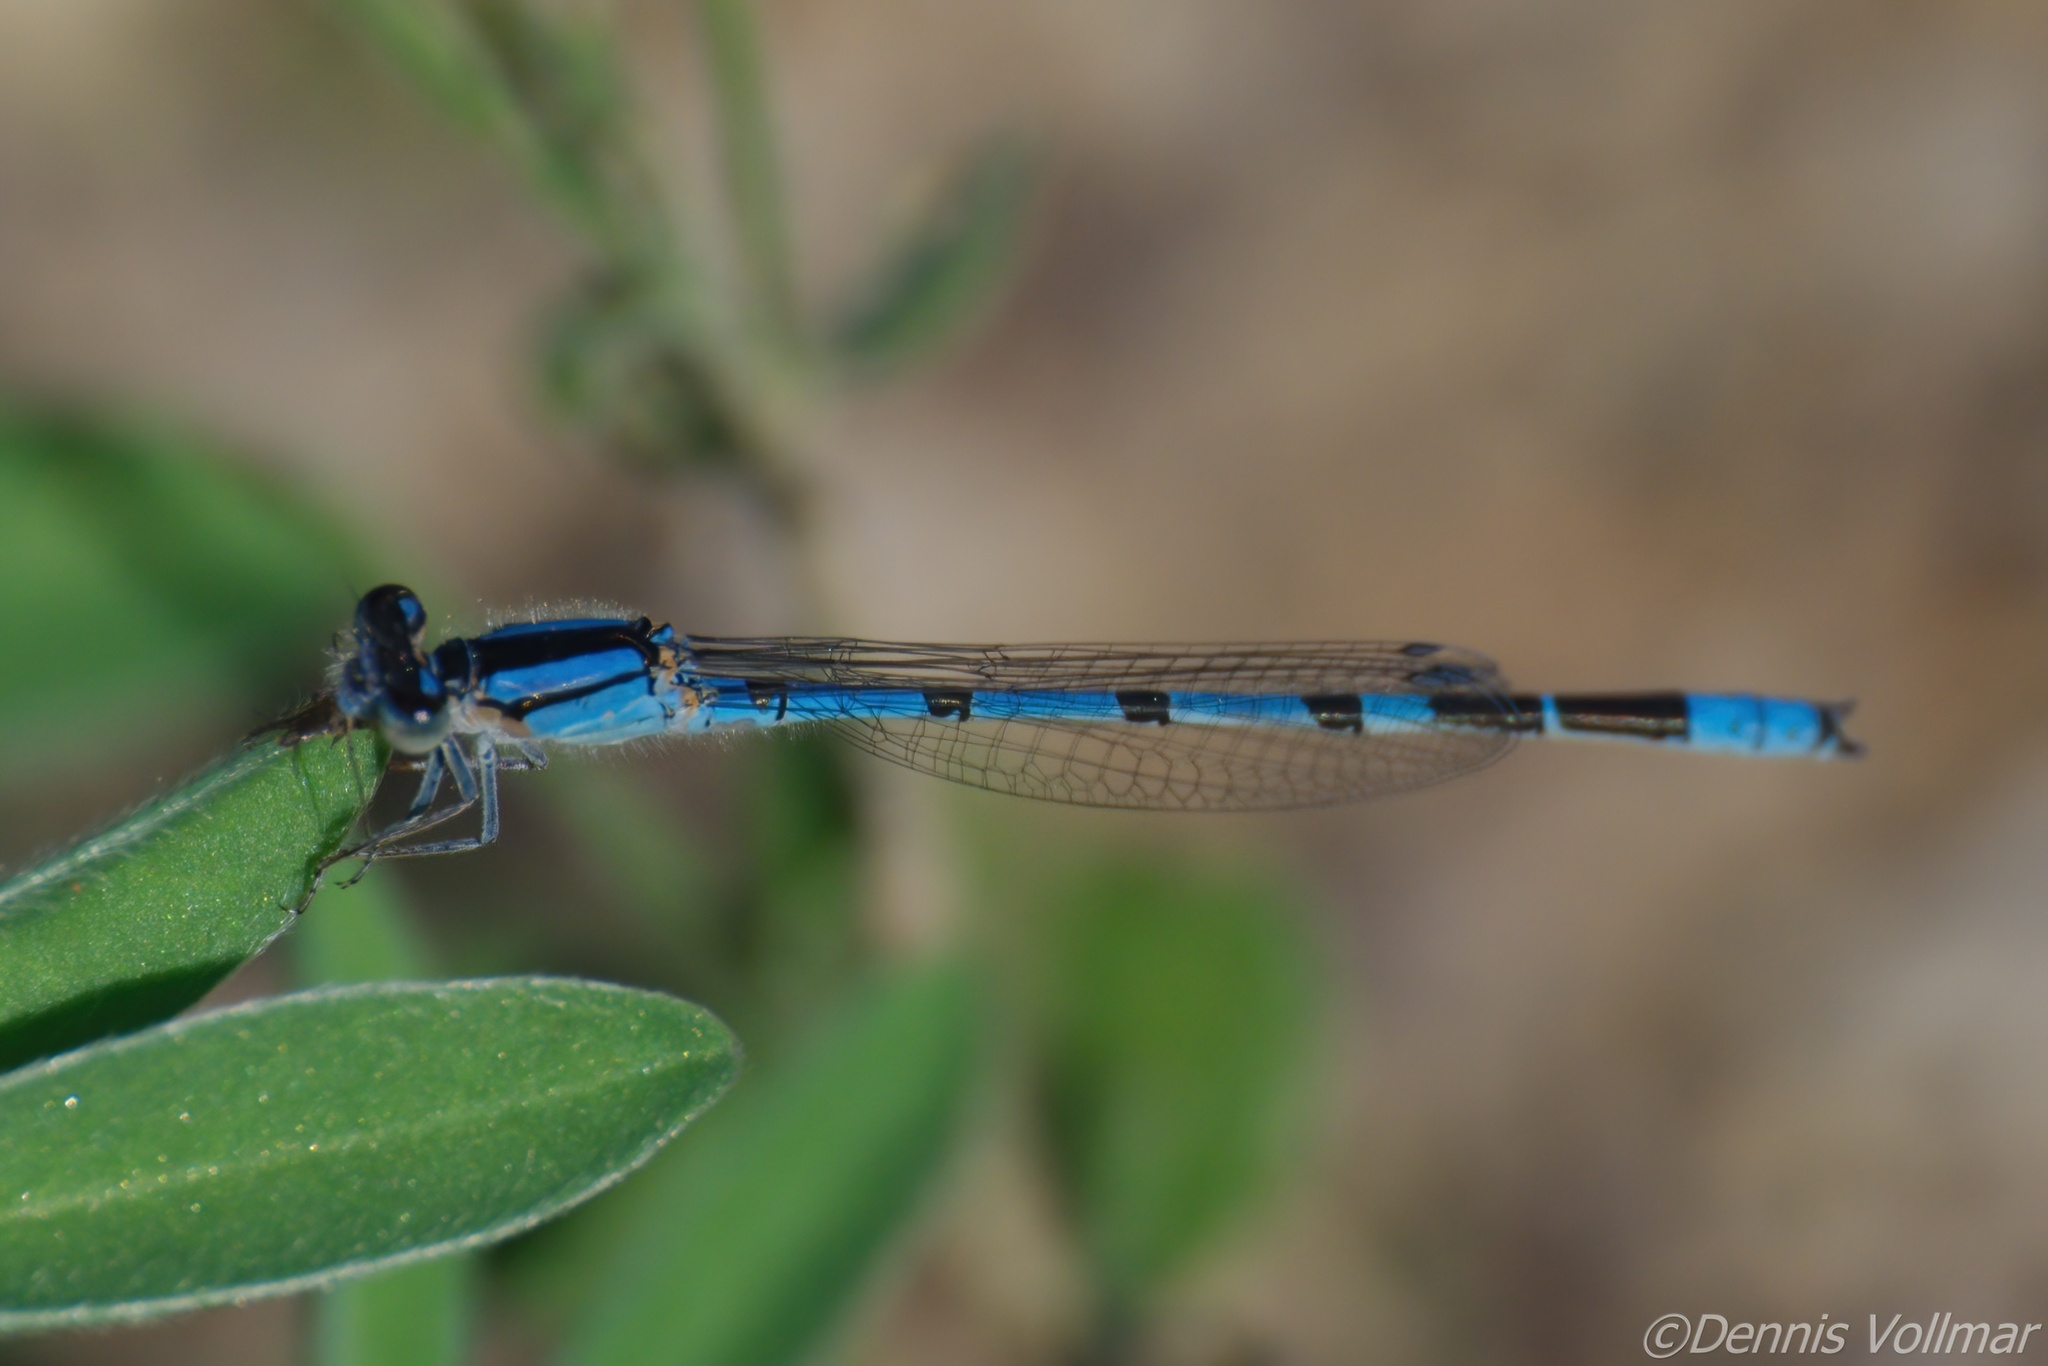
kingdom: Animalia
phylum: Arthropoda
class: Insecta
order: Odonata
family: Coenagrionidae
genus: Enallagma
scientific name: Enallagma civile
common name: Damselfly
